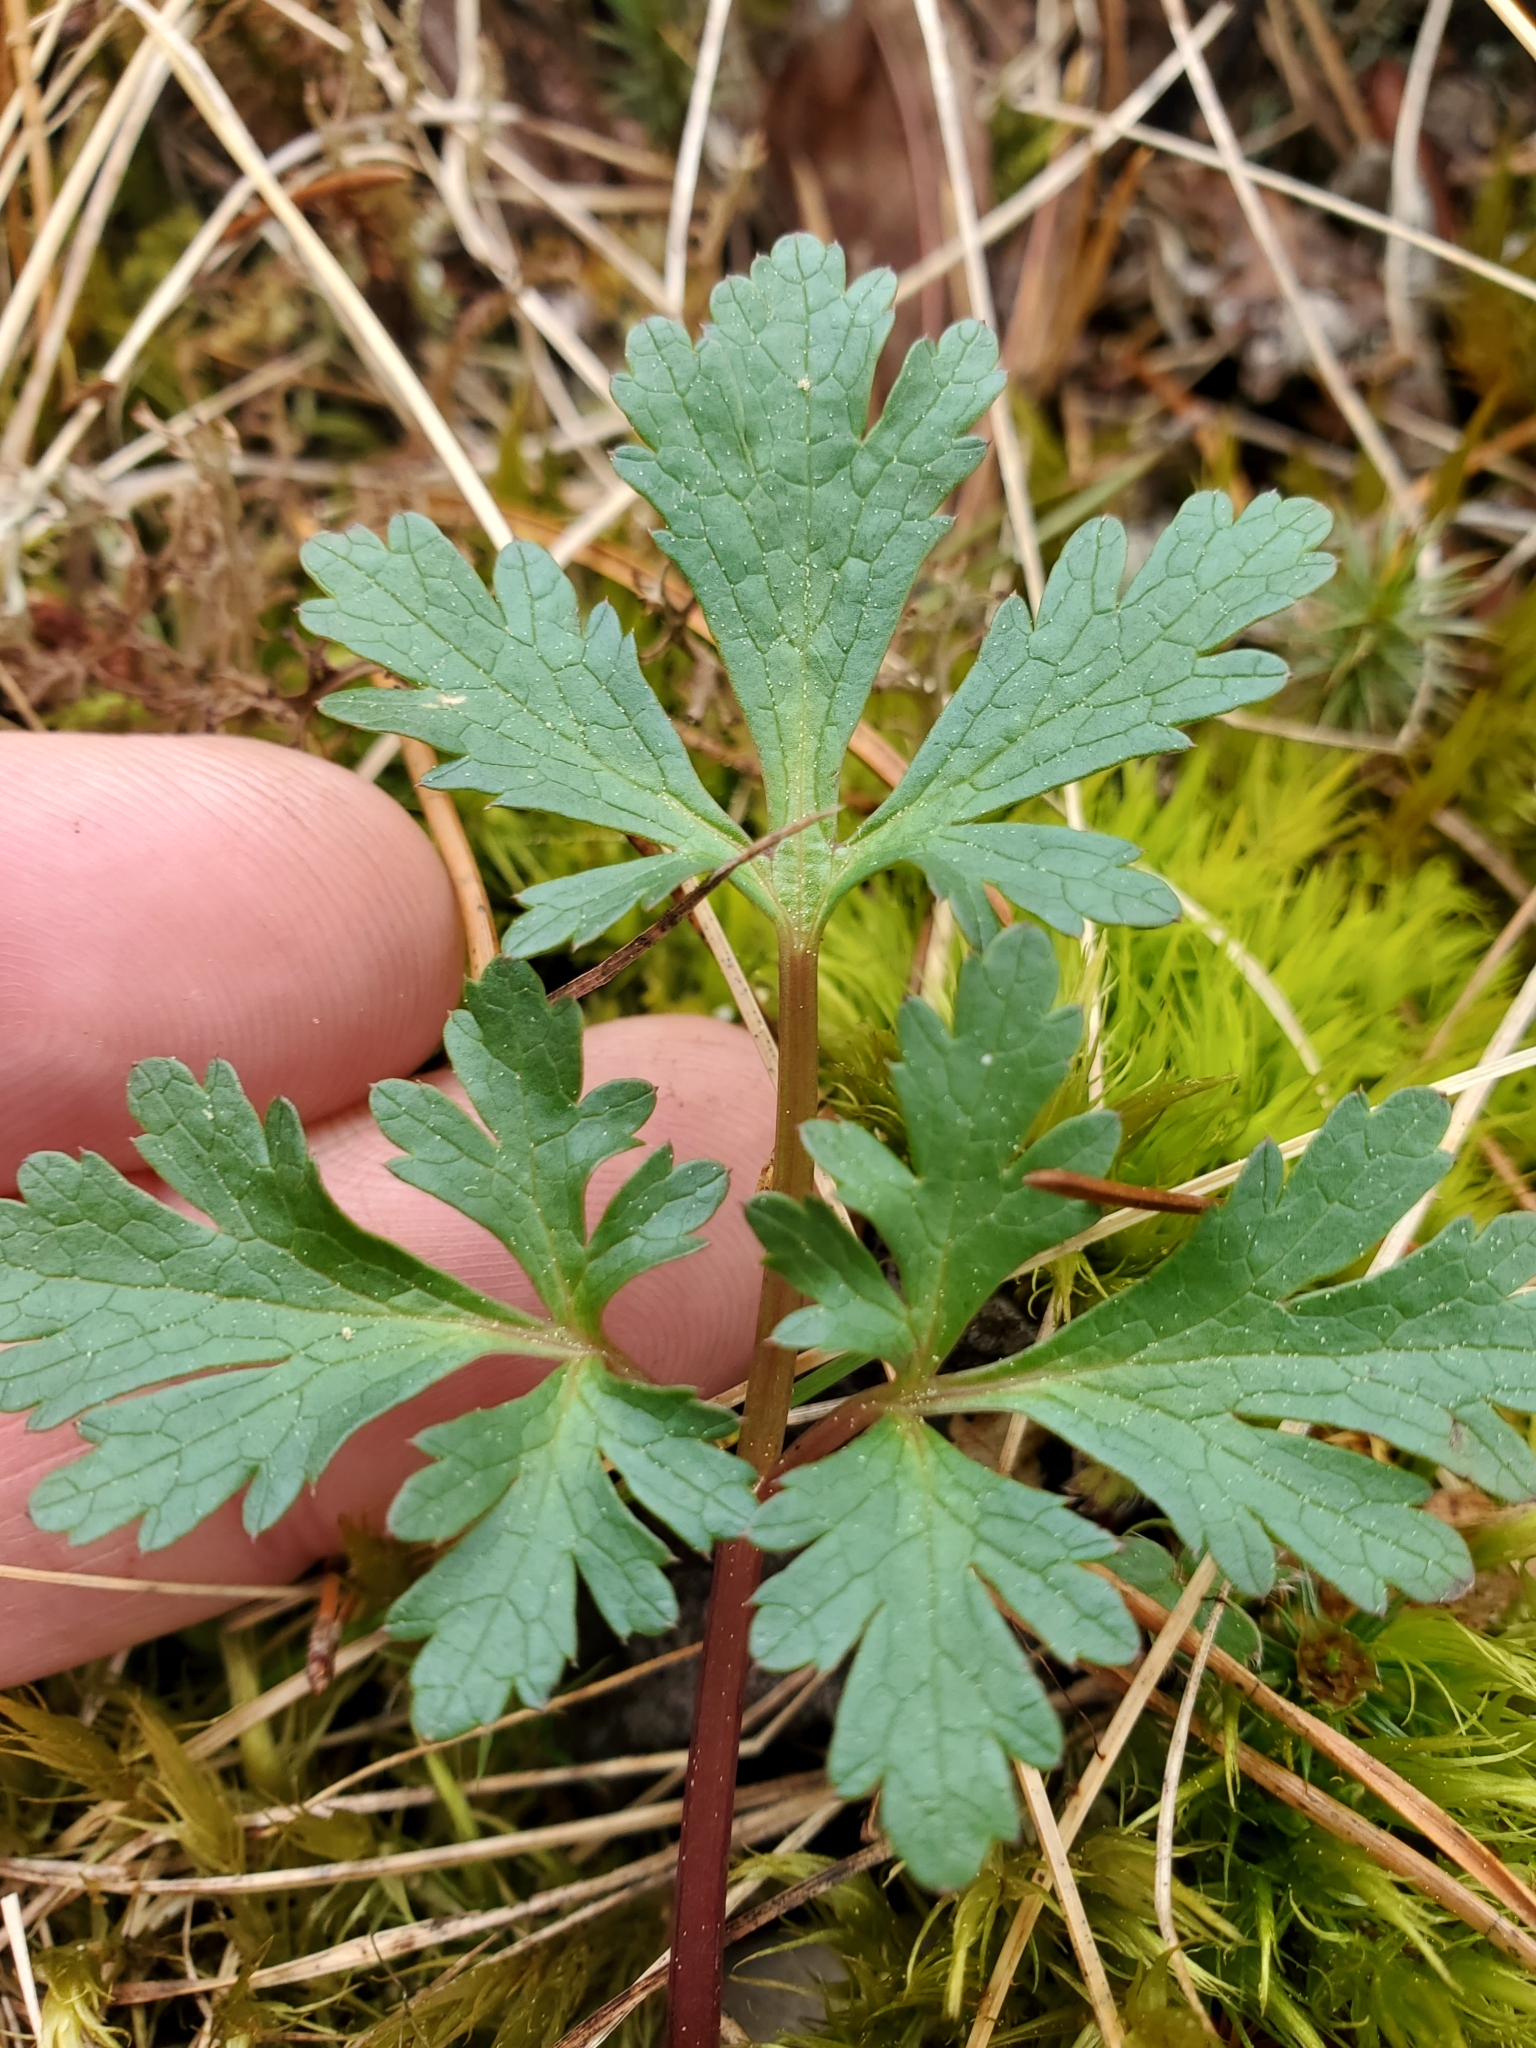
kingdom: Plantae
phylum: Tracheophyta
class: Magnoliopsida
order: Apiales
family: Apiaceae
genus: Sanicula
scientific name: Sanicula graveolens
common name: Sierra sanicle
